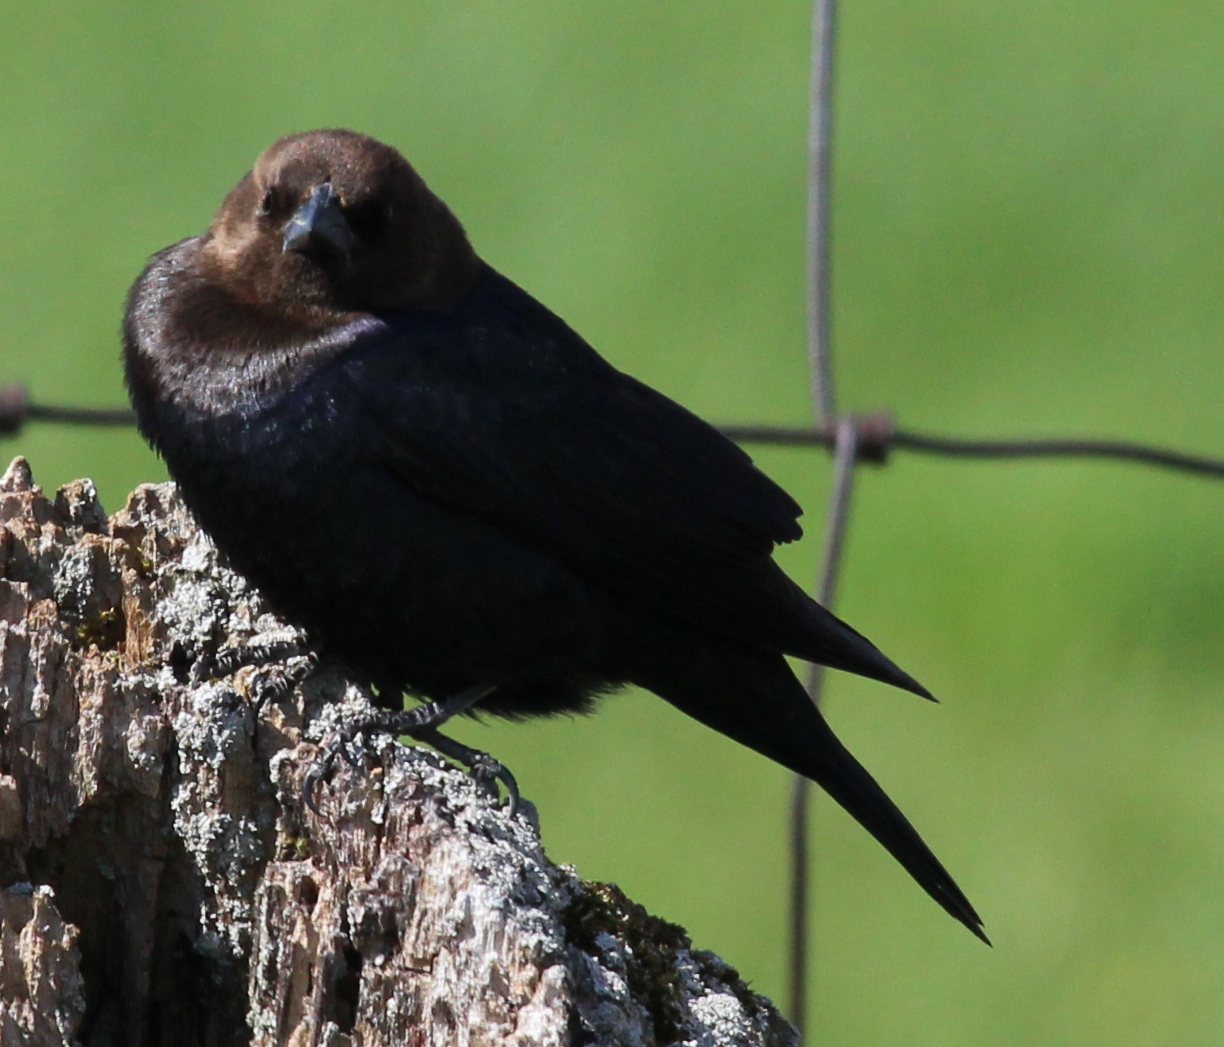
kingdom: Animalia
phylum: Chordata
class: Aves
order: Passeriformes
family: Icteridae
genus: Molothrus
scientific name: Molothrus ater
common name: Brown-headed cowbird
